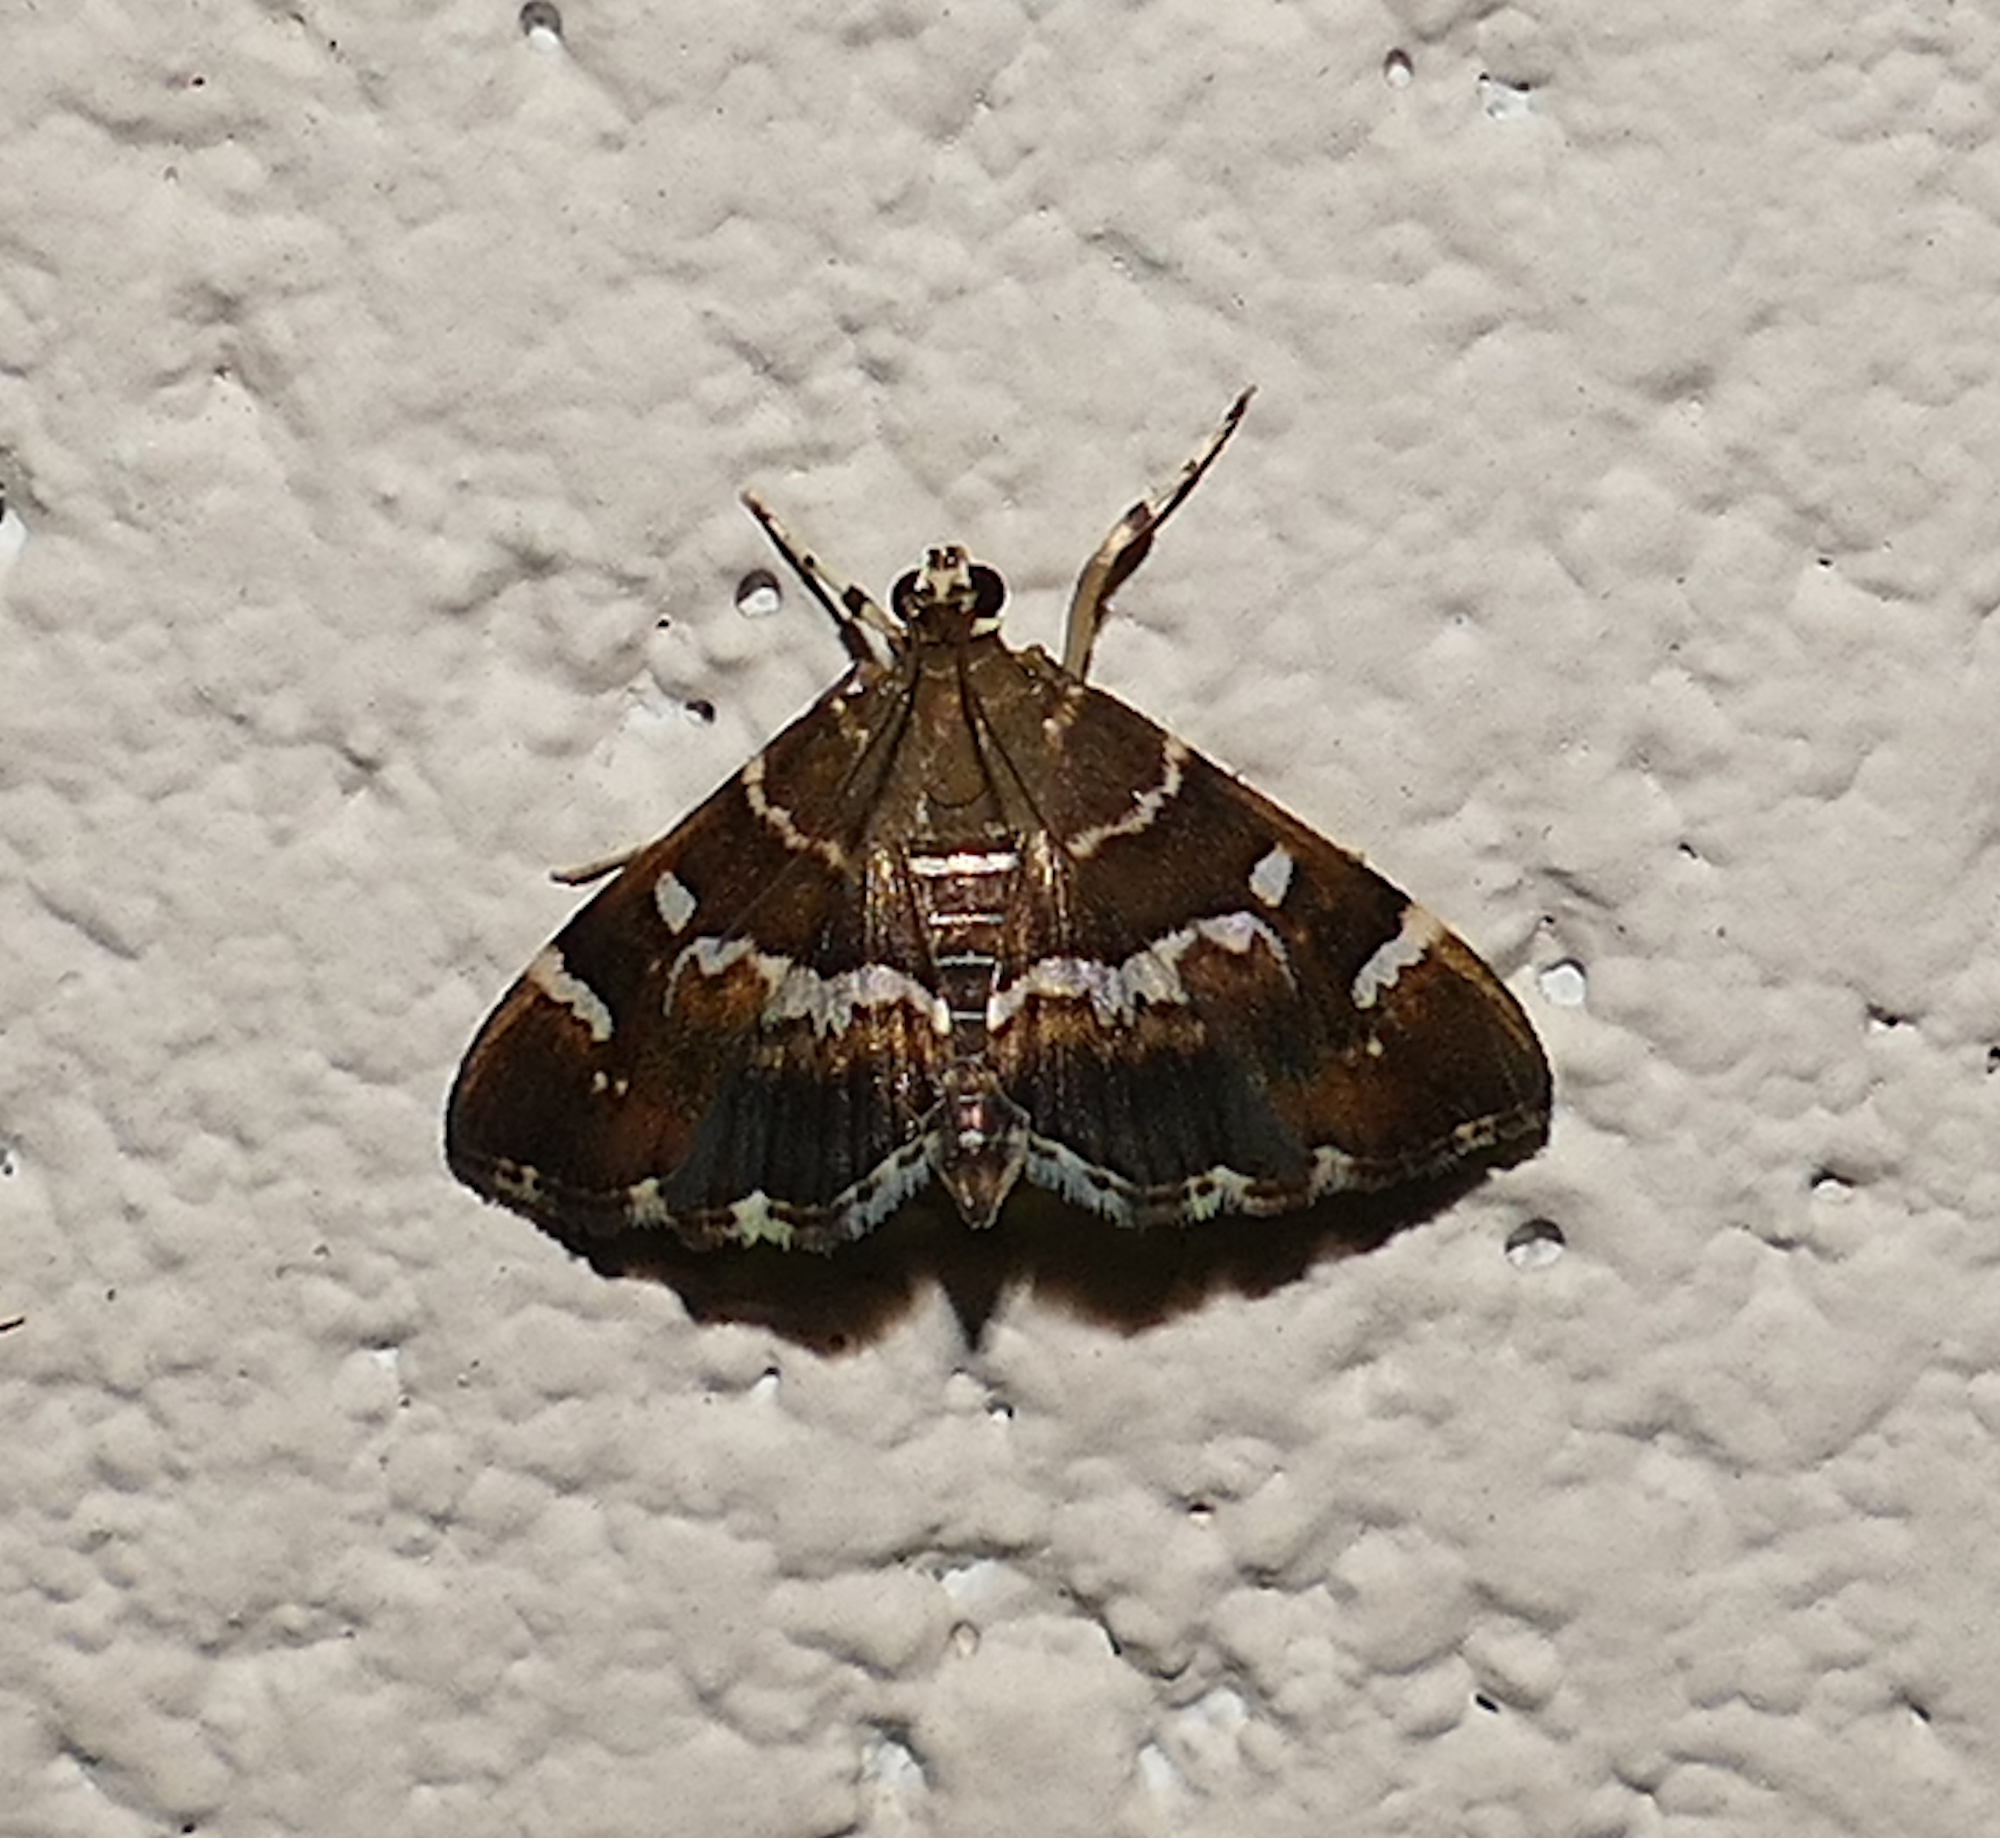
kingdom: Animalia
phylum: Arthropoda
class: Insecta
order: Lepidoptera
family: Crambidae
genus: Hymenia
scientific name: Hymenia perspectalis
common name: Spotted beet webworm
